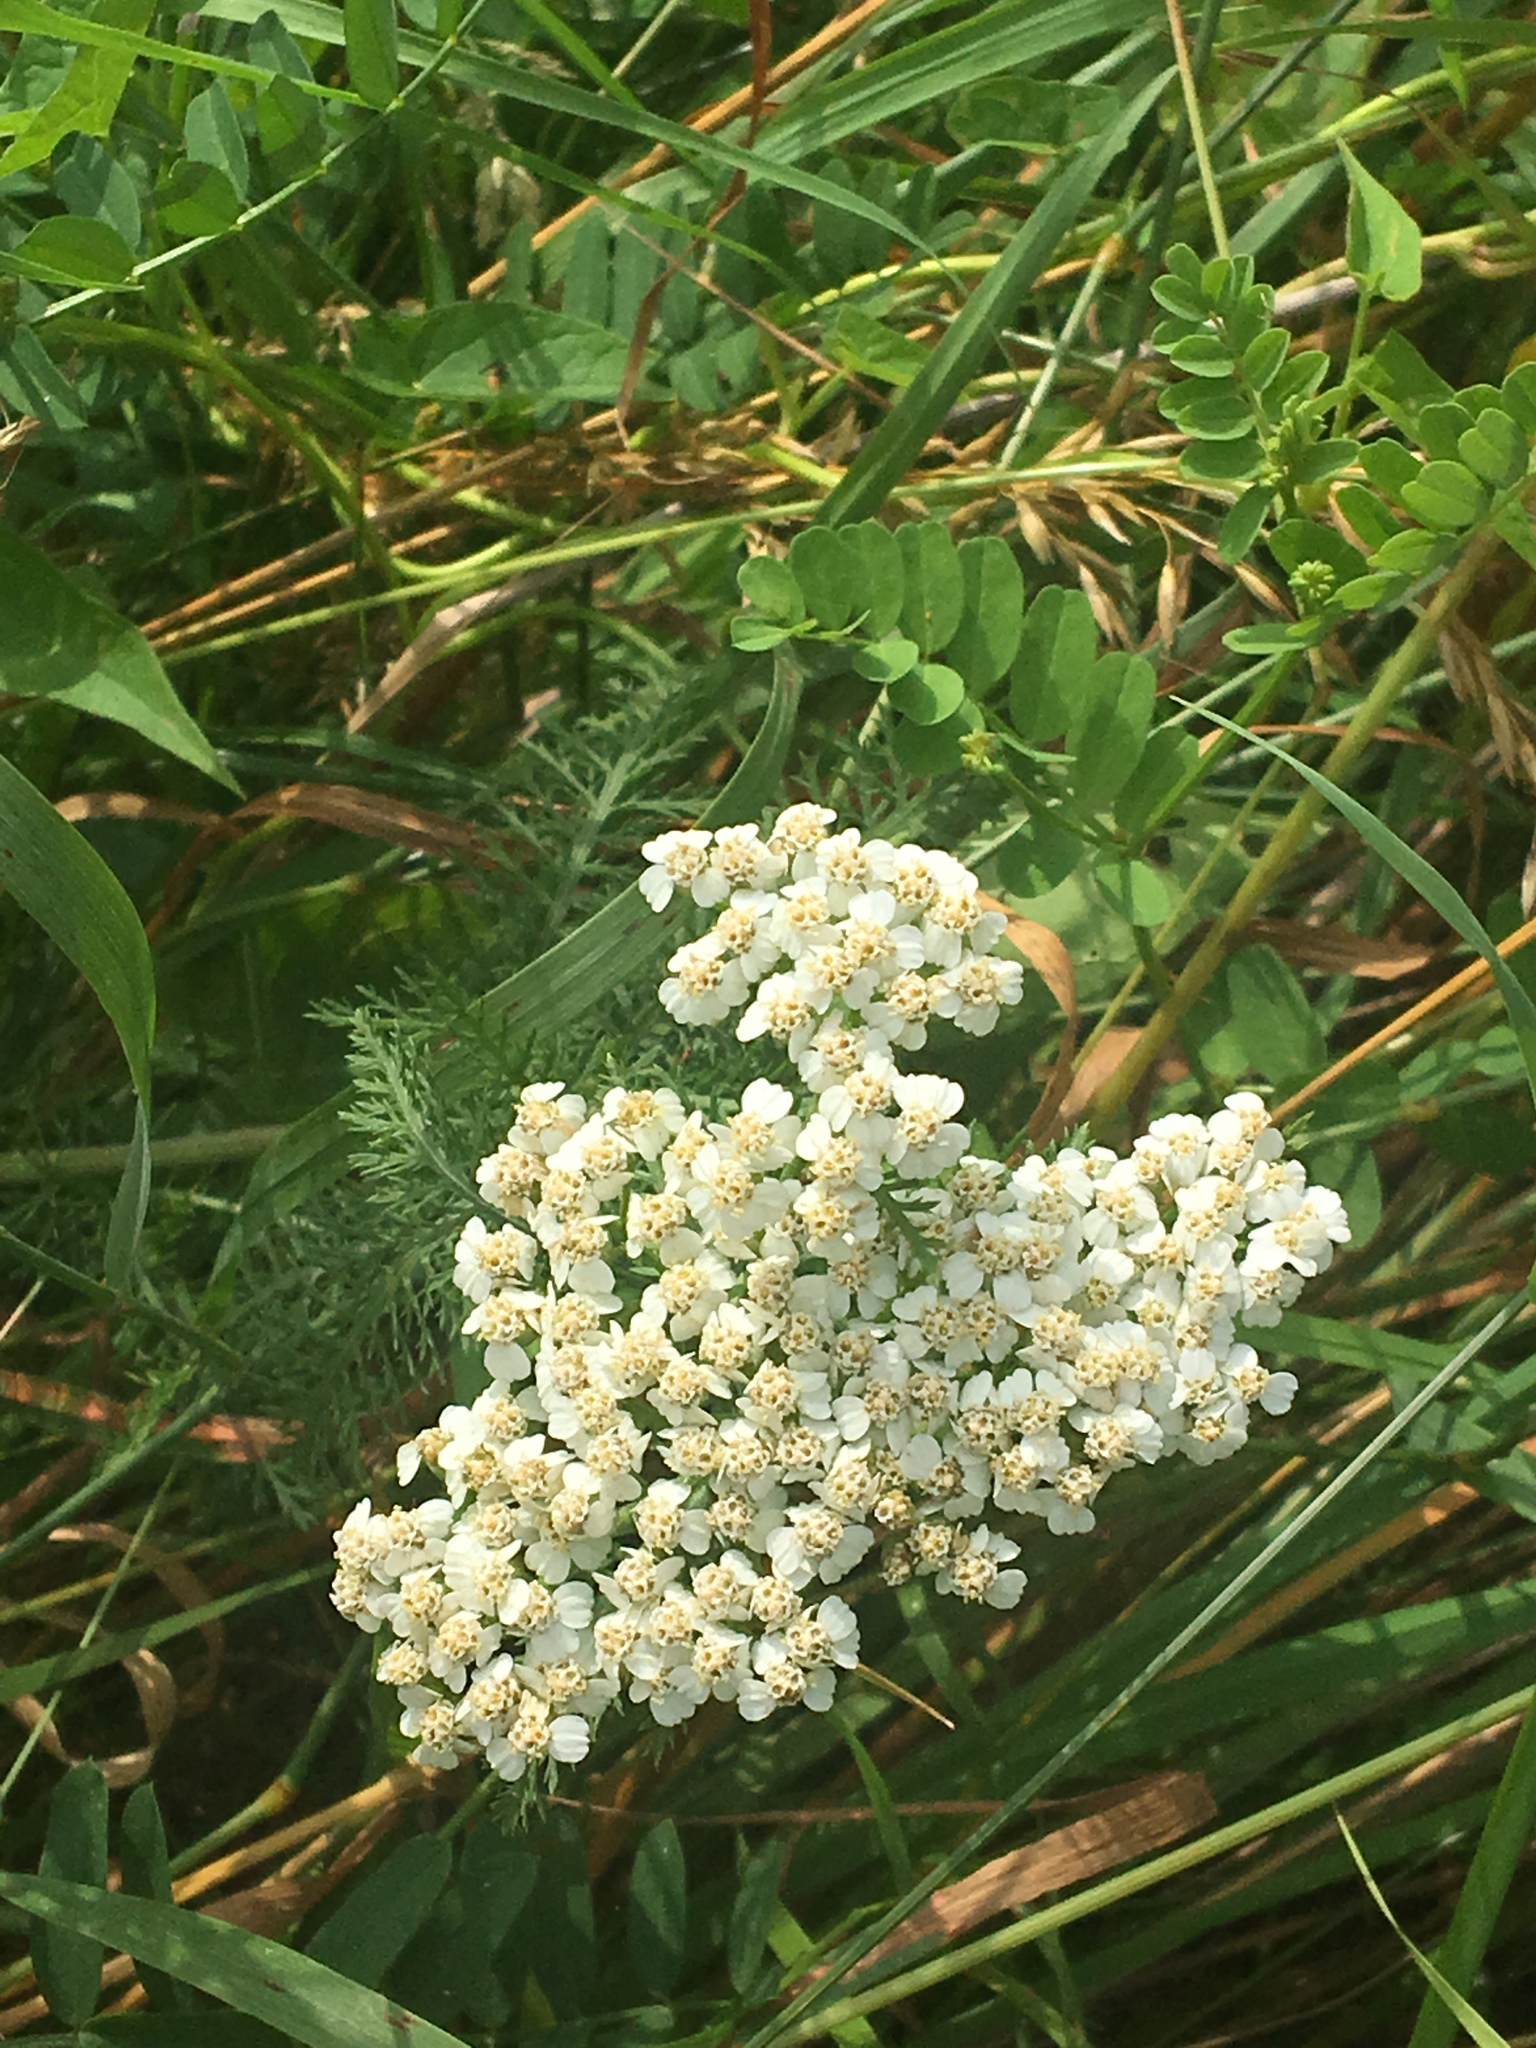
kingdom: Plantae
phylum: Tracheophyta
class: Magnoliopsida
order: Asterales
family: Asteraceae
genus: Achillea
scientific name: Achillea millefolium
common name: Yarrow
